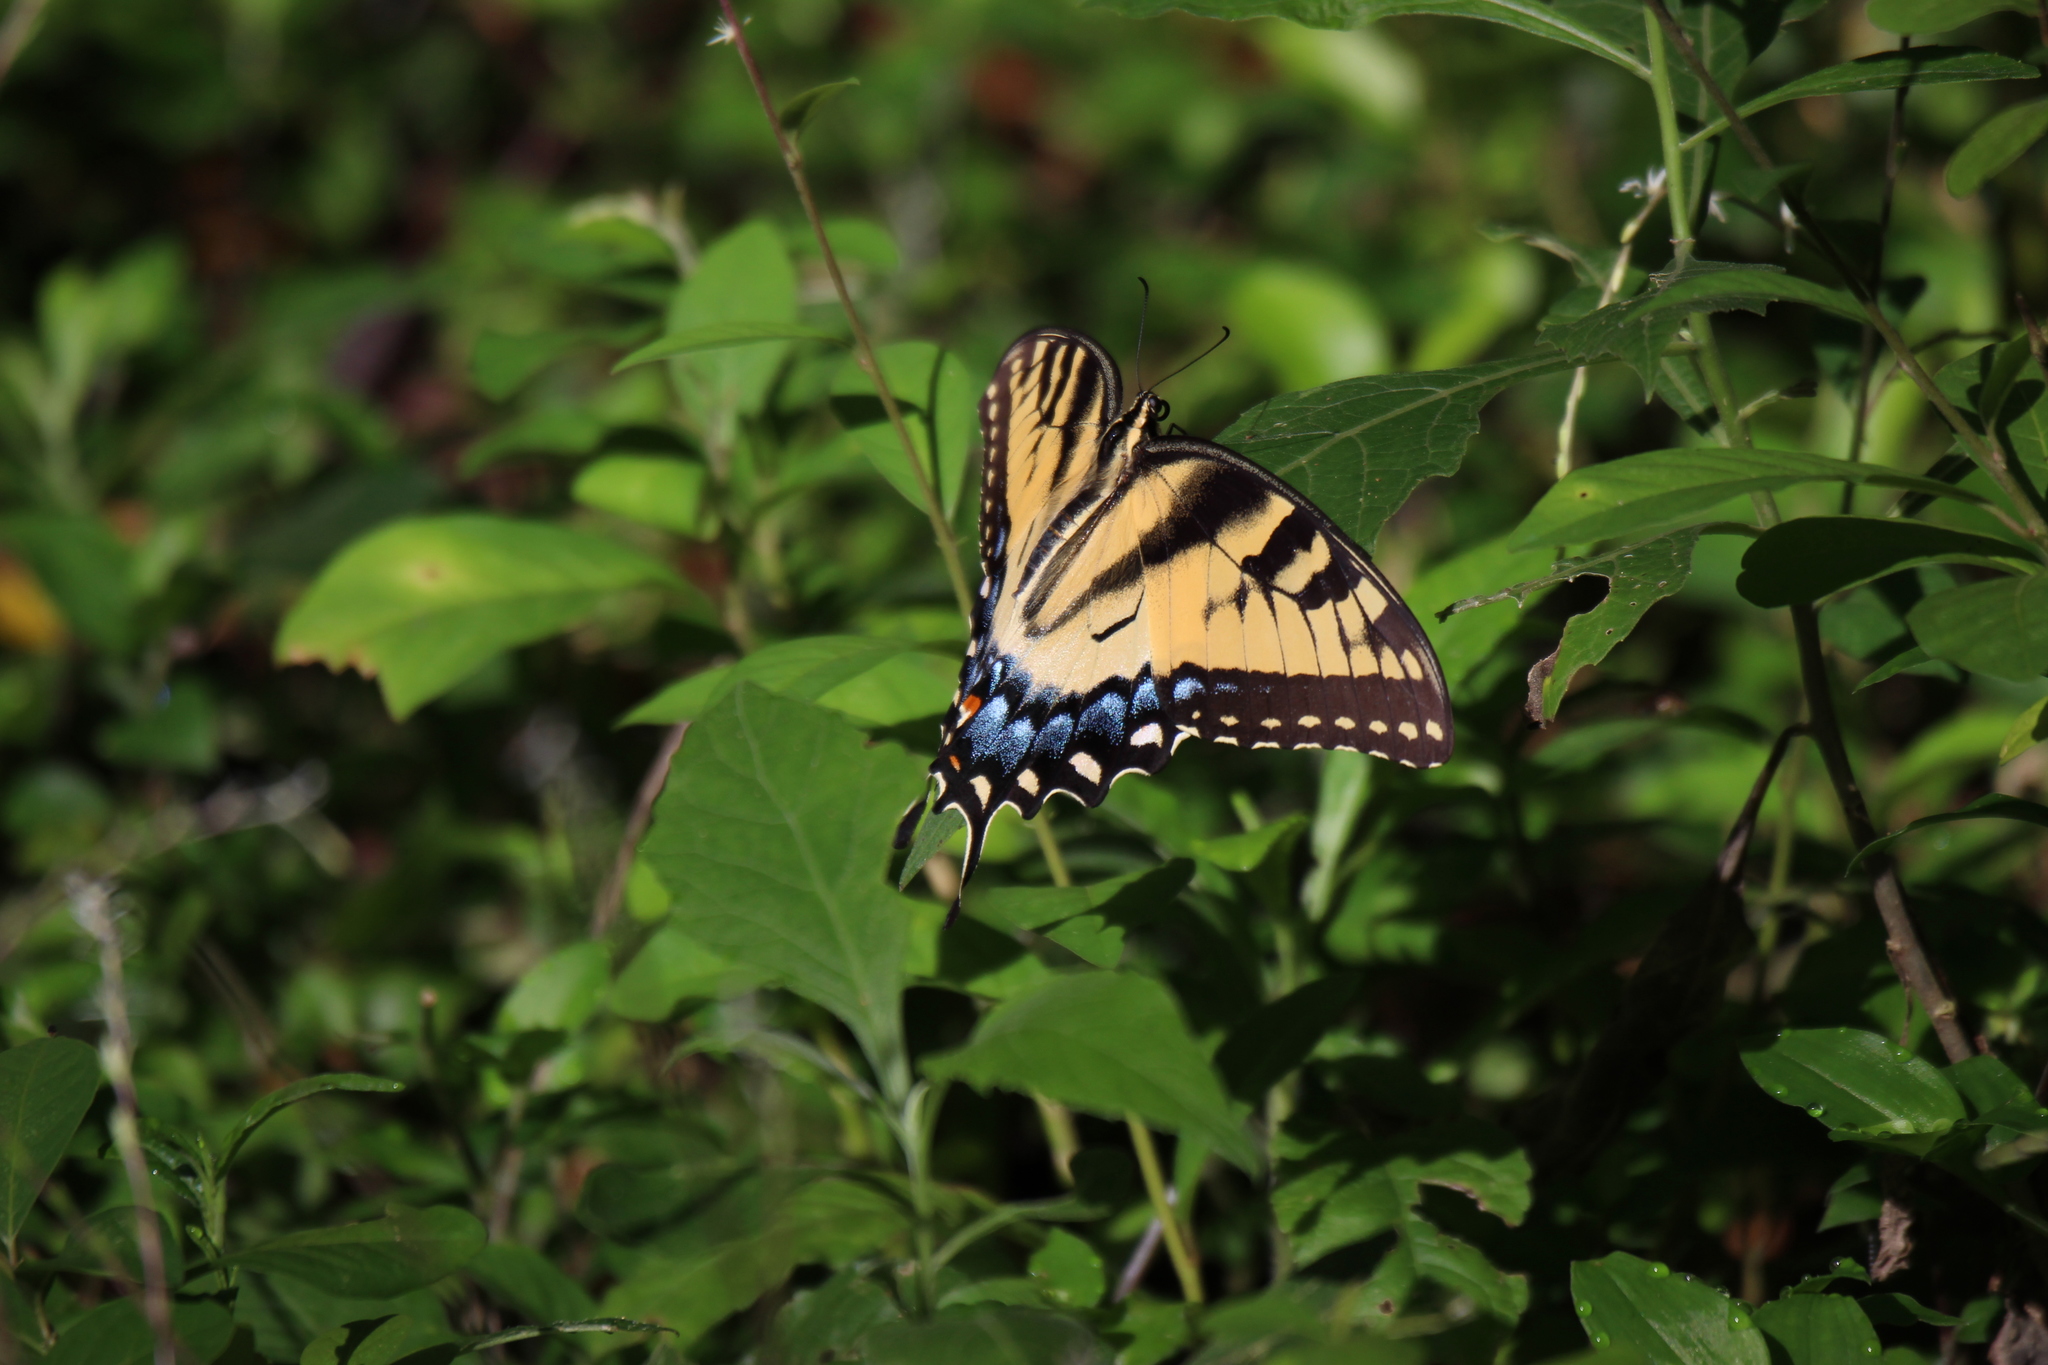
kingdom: Animalia
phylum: Arthropoda
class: Insecta
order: Lepidoptera
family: Papilionidae
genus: Papilio
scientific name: Papilio glaucus
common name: Tiger swallowtail
